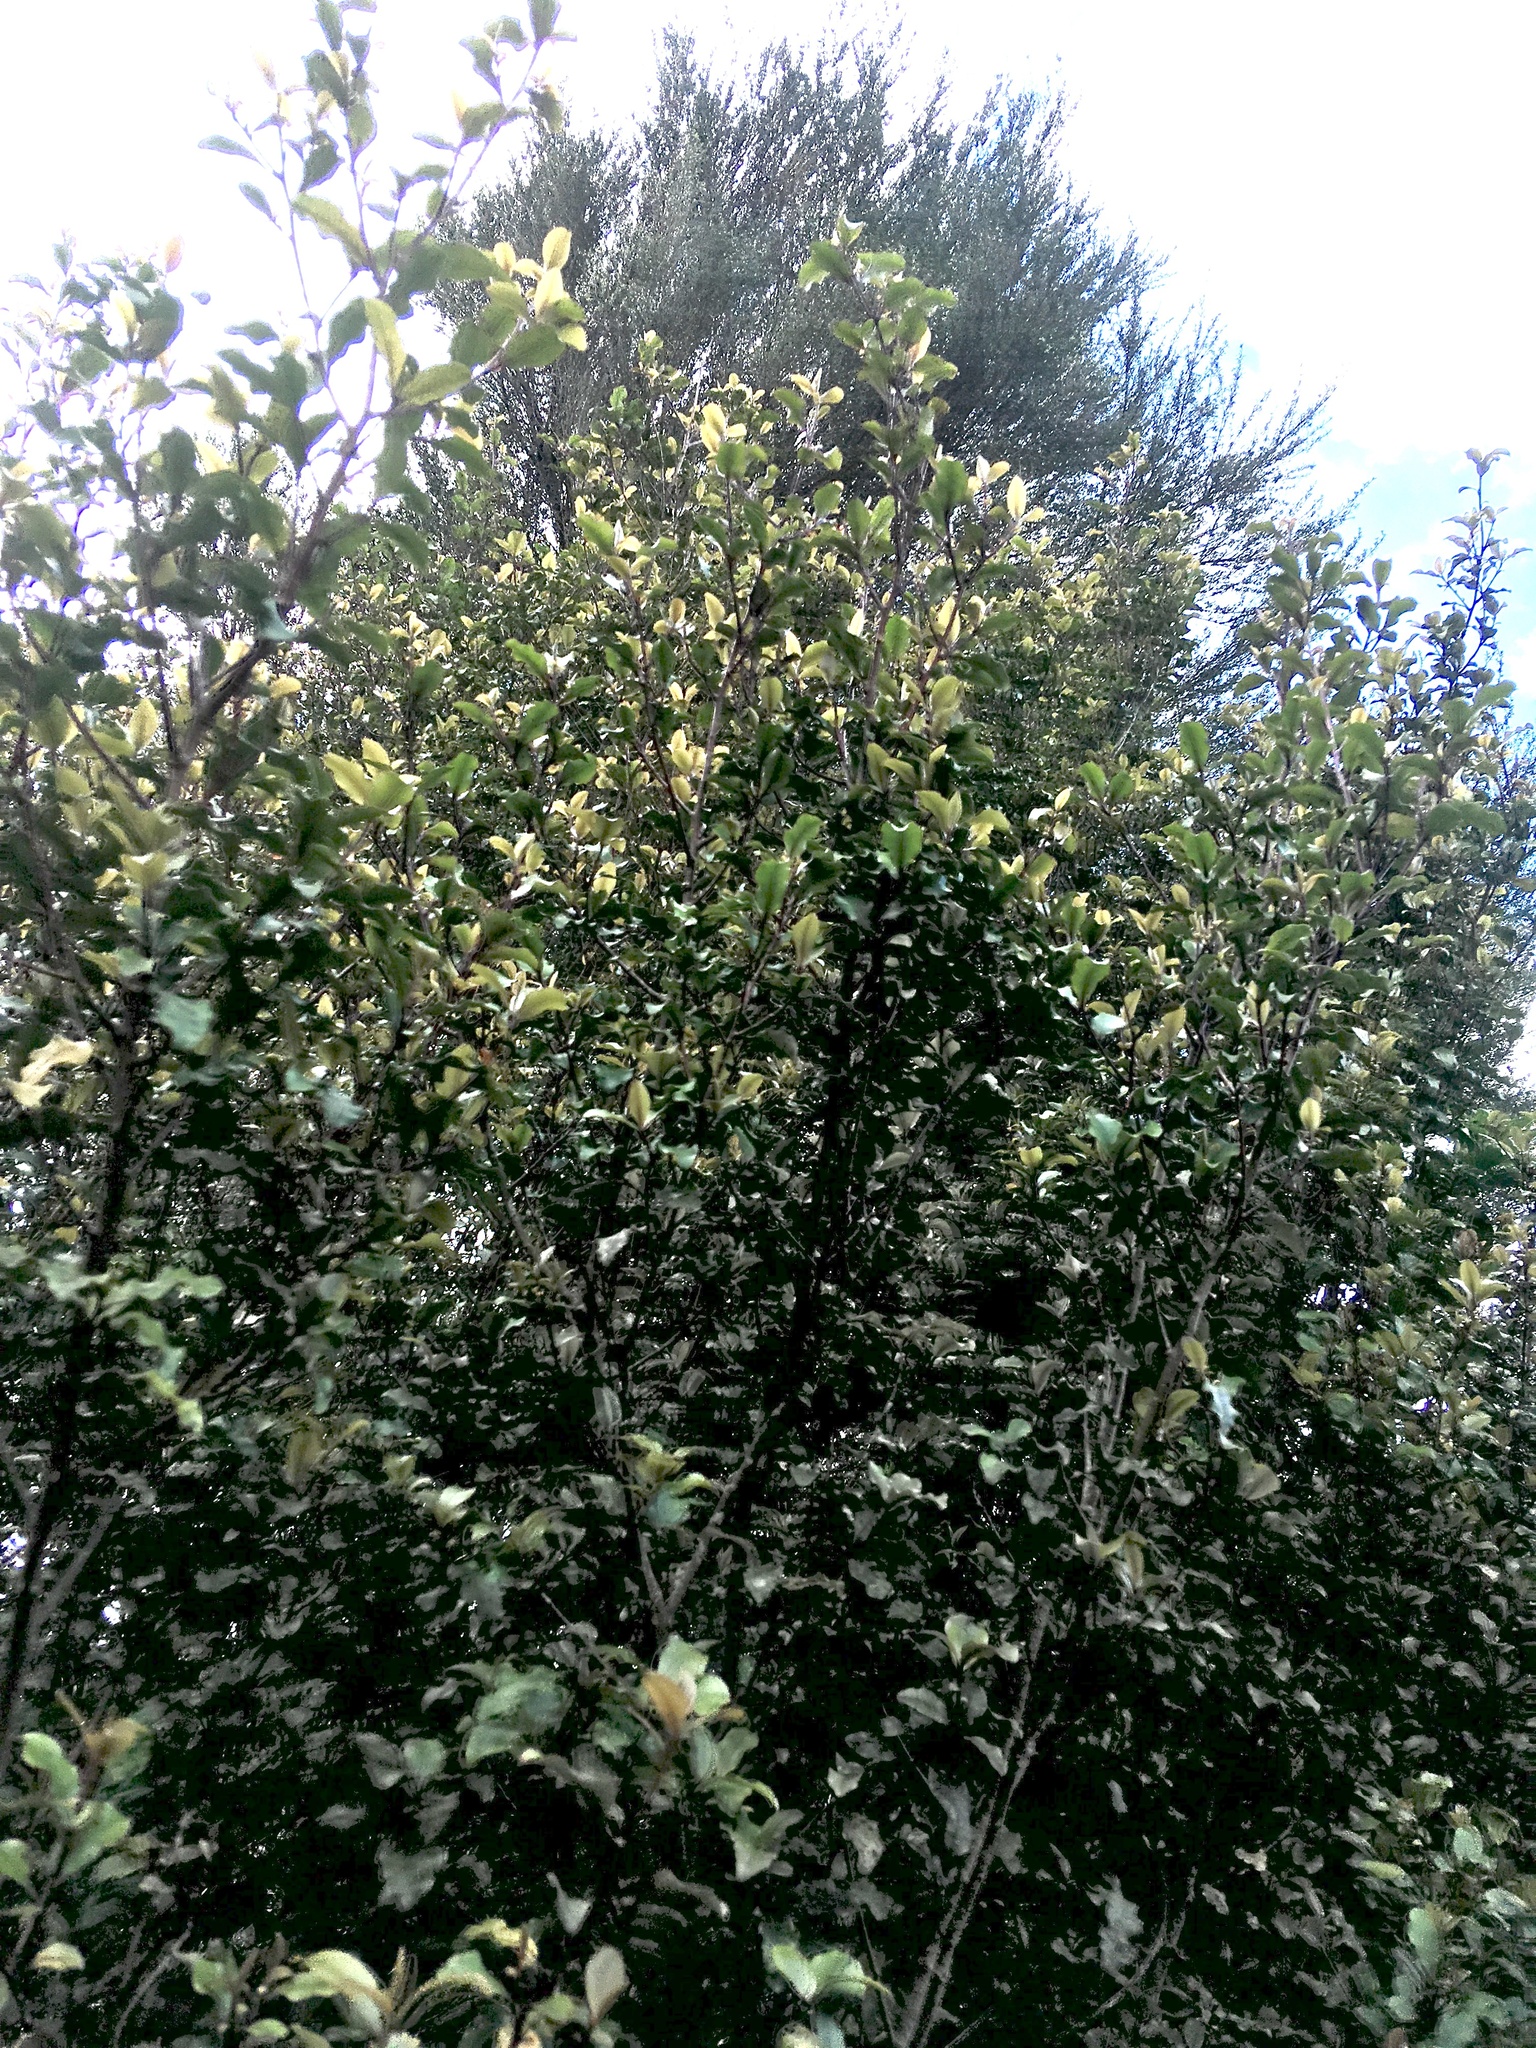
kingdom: Plantae
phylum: Tracheophyta
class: Magnoliopsida
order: Apiales
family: Pittosporaceae
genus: Pittosporum
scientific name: Pittosporum tenuifolium
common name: Kohuhu
